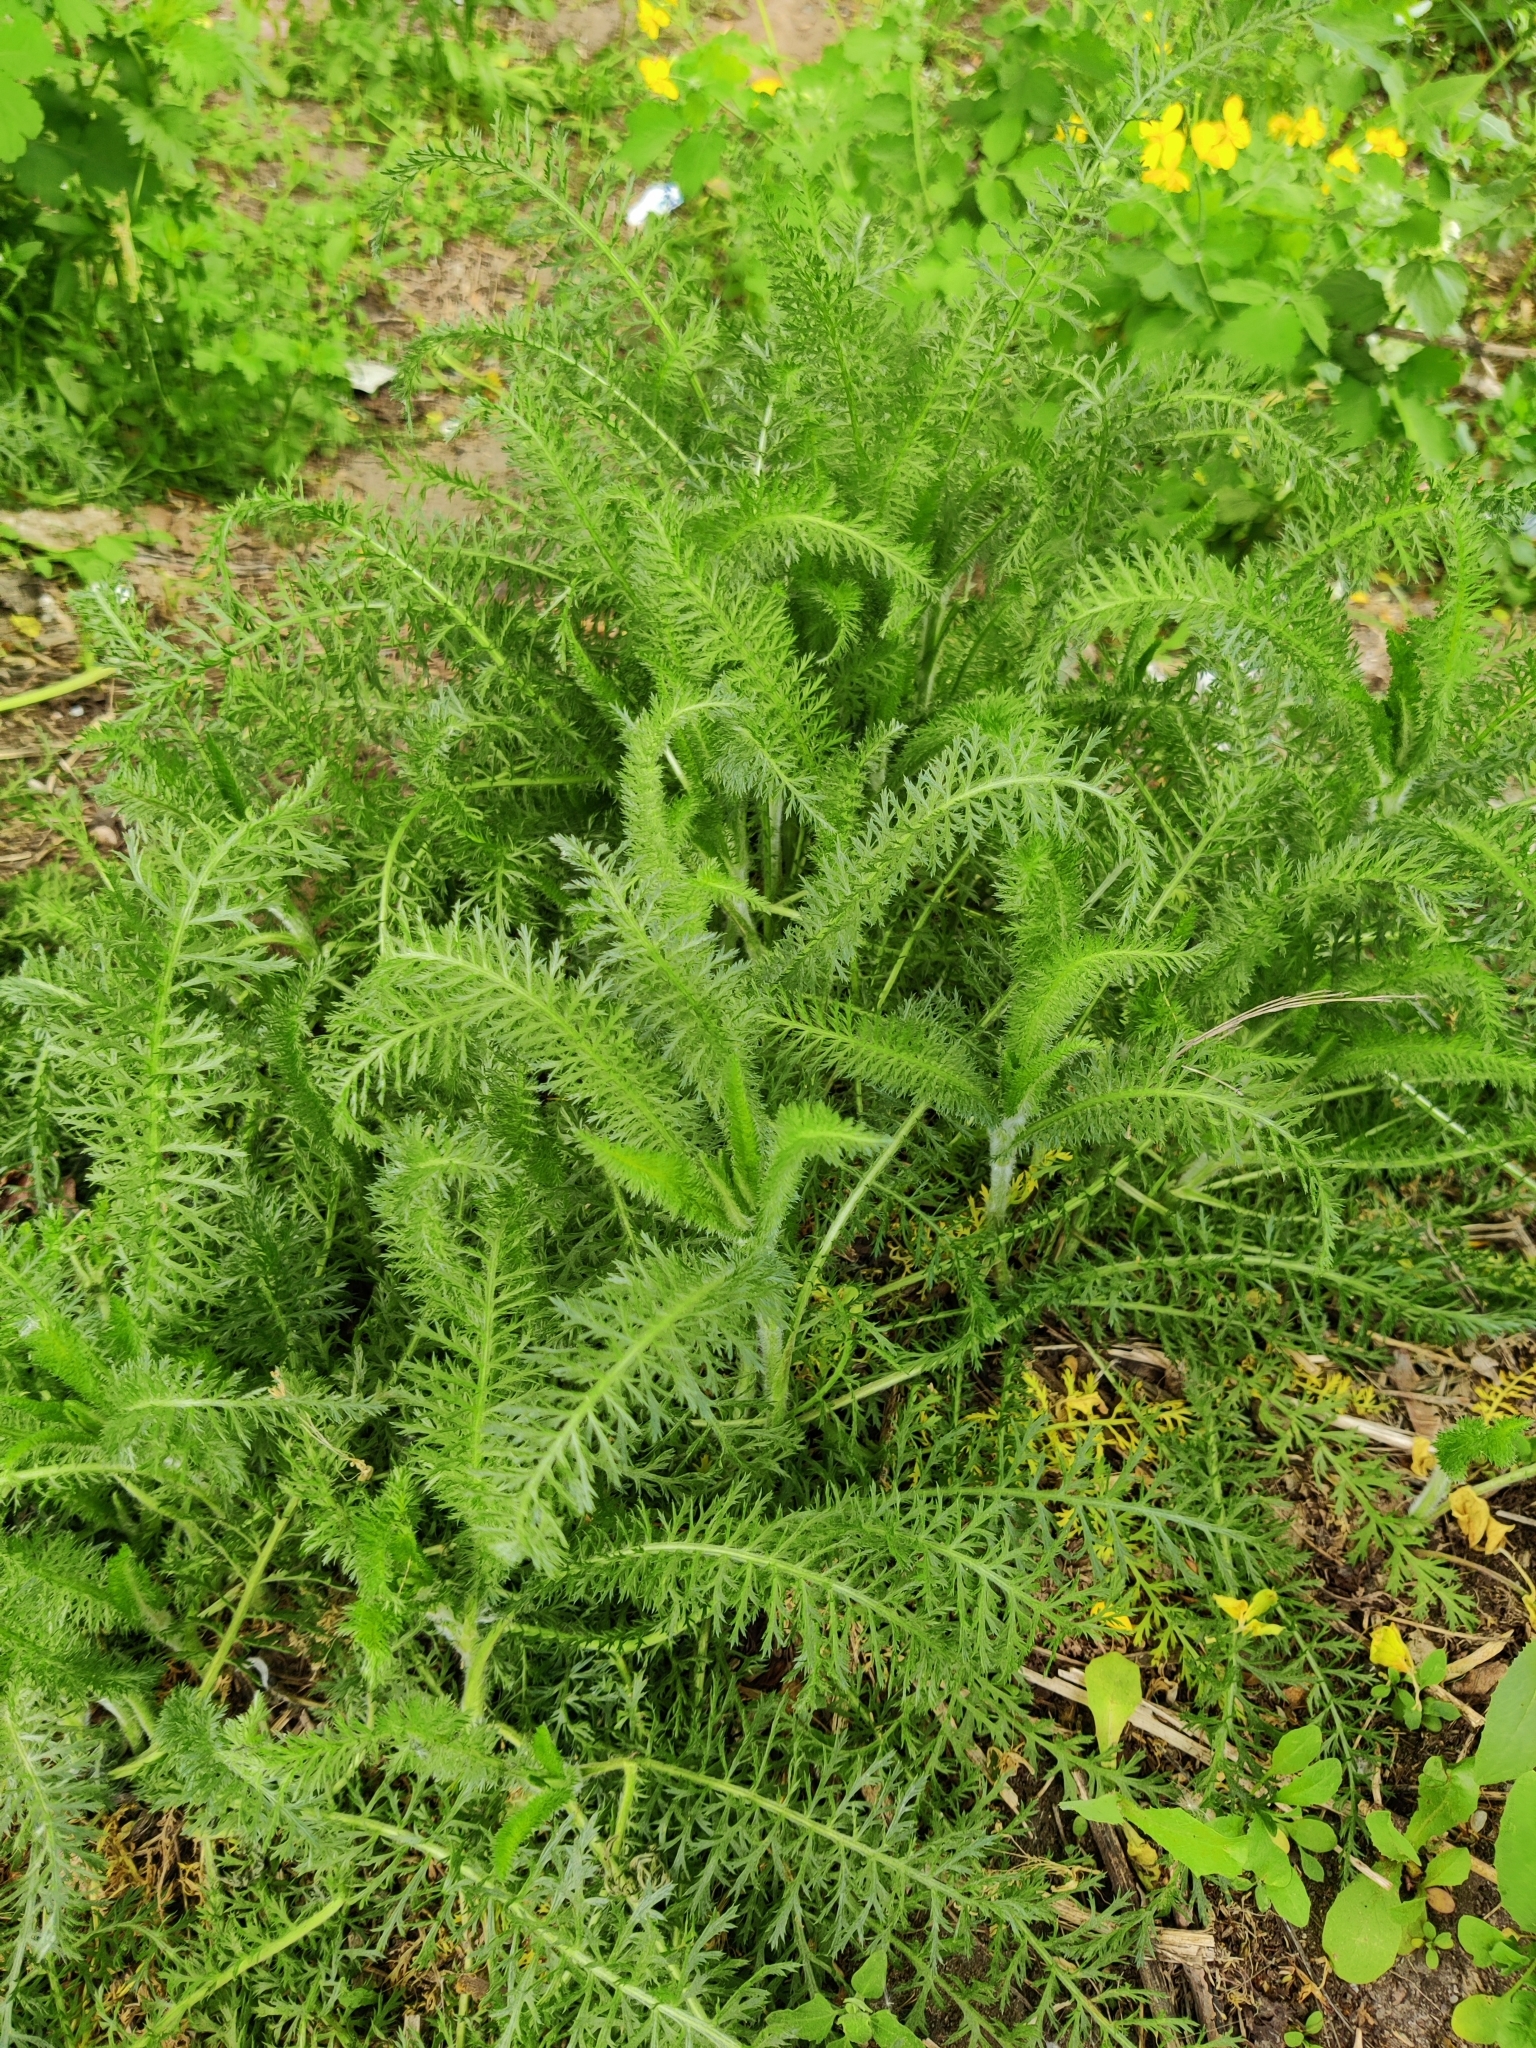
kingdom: Plantae
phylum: Tracheophyta
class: Magnoliopsida
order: Asterales
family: Asteraceae
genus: Achillea
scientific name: Achillea millefolium
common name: Yarrow
